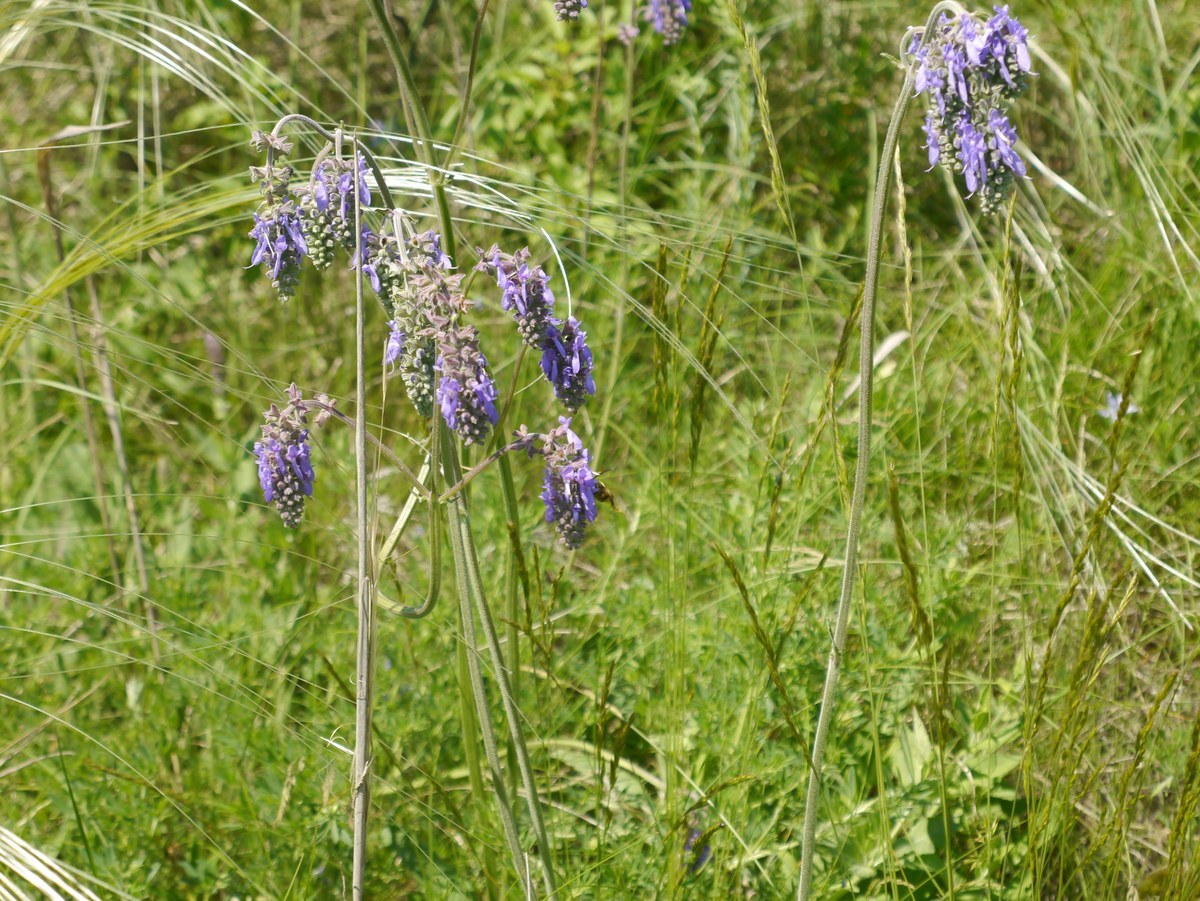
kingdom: Plantae
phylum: Tracheophyta
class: Magnoliopsida
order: Lamiales
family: Lamiaceae
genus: Salvia
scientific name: Salvia nutans
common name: Nodding sage
